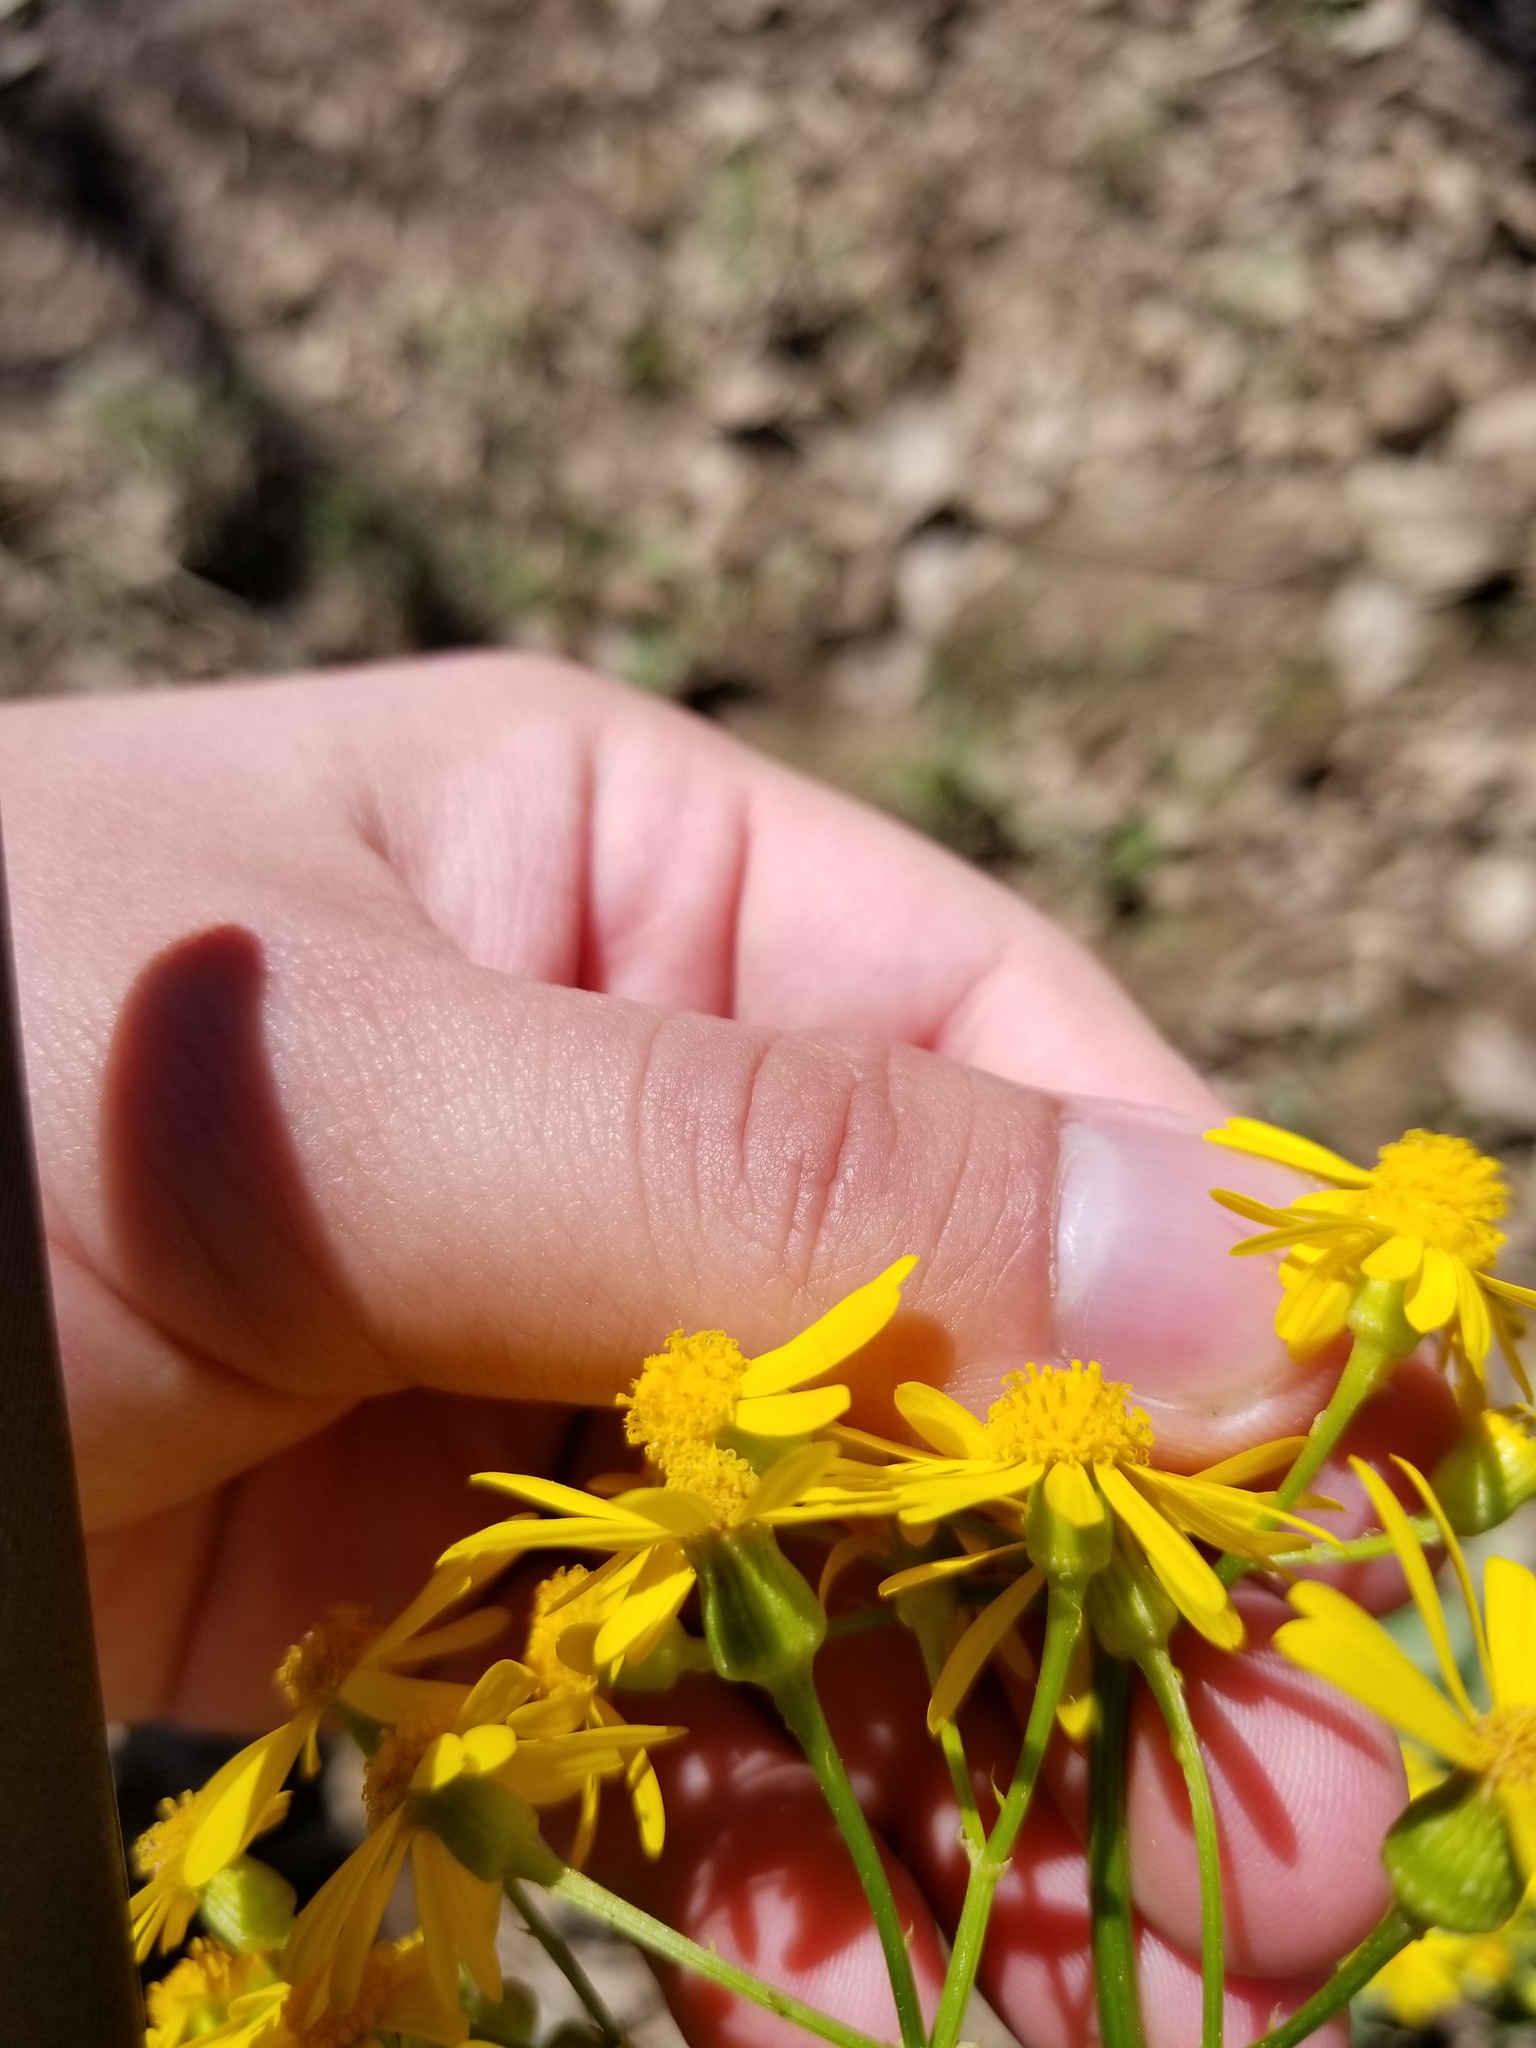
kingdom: Plantae
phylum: Tracheophyta
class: Magnoliopsida
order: Asterales
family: Asteraceae
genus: Packera
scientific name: Packera glabella
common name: Butterweed
